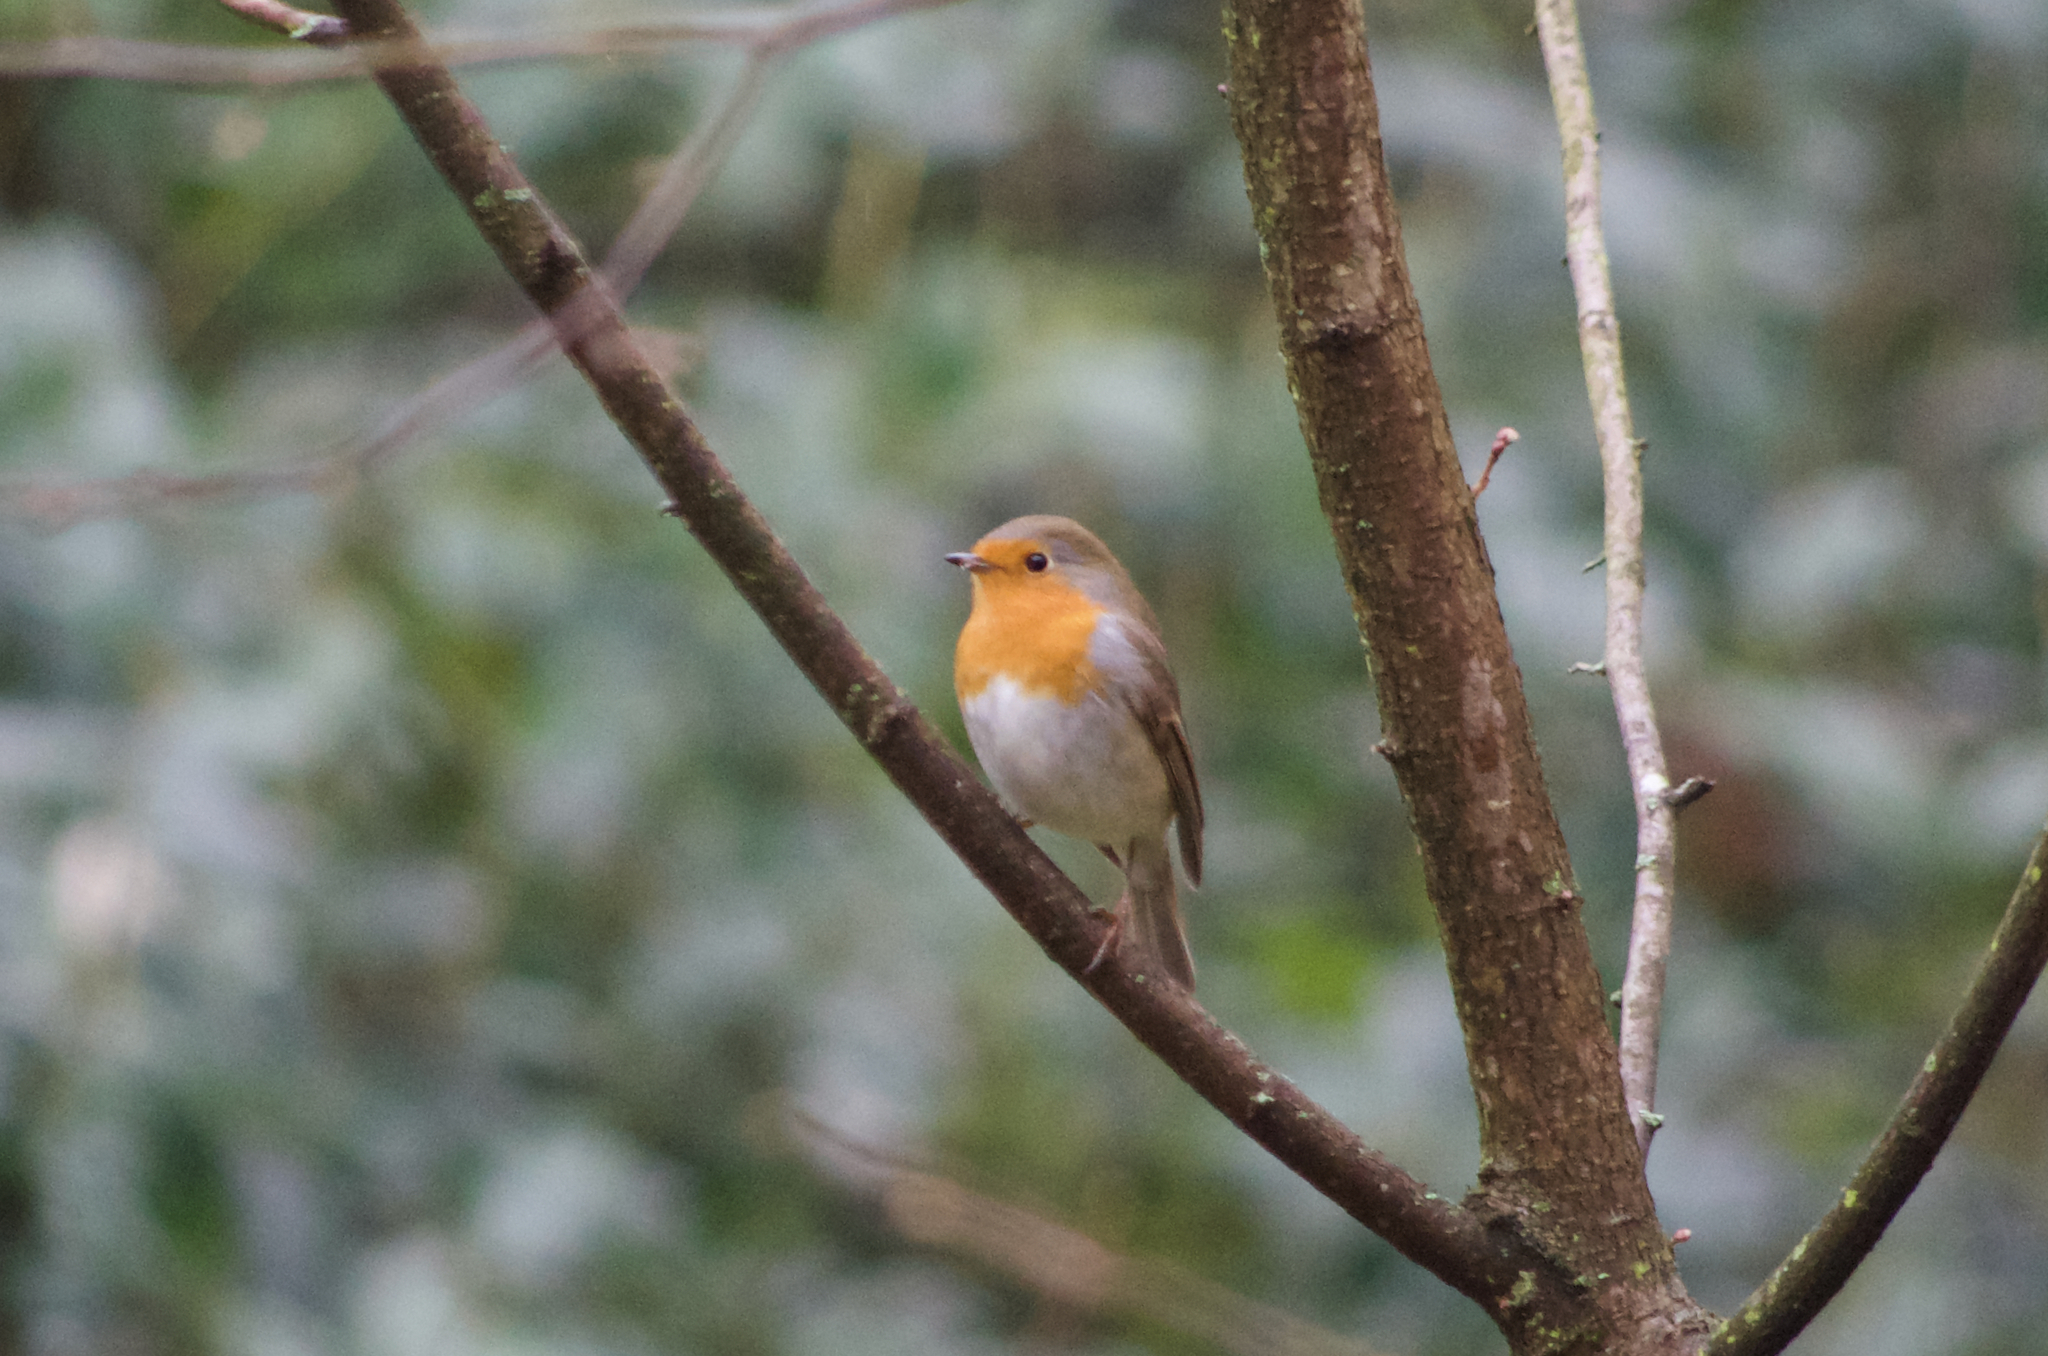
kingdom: Animalia
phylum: Chordata
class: Aves
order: Passeriformes
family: Muscicapidae
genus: Erithacus
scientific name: Erithacus rubecula
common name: European robin
